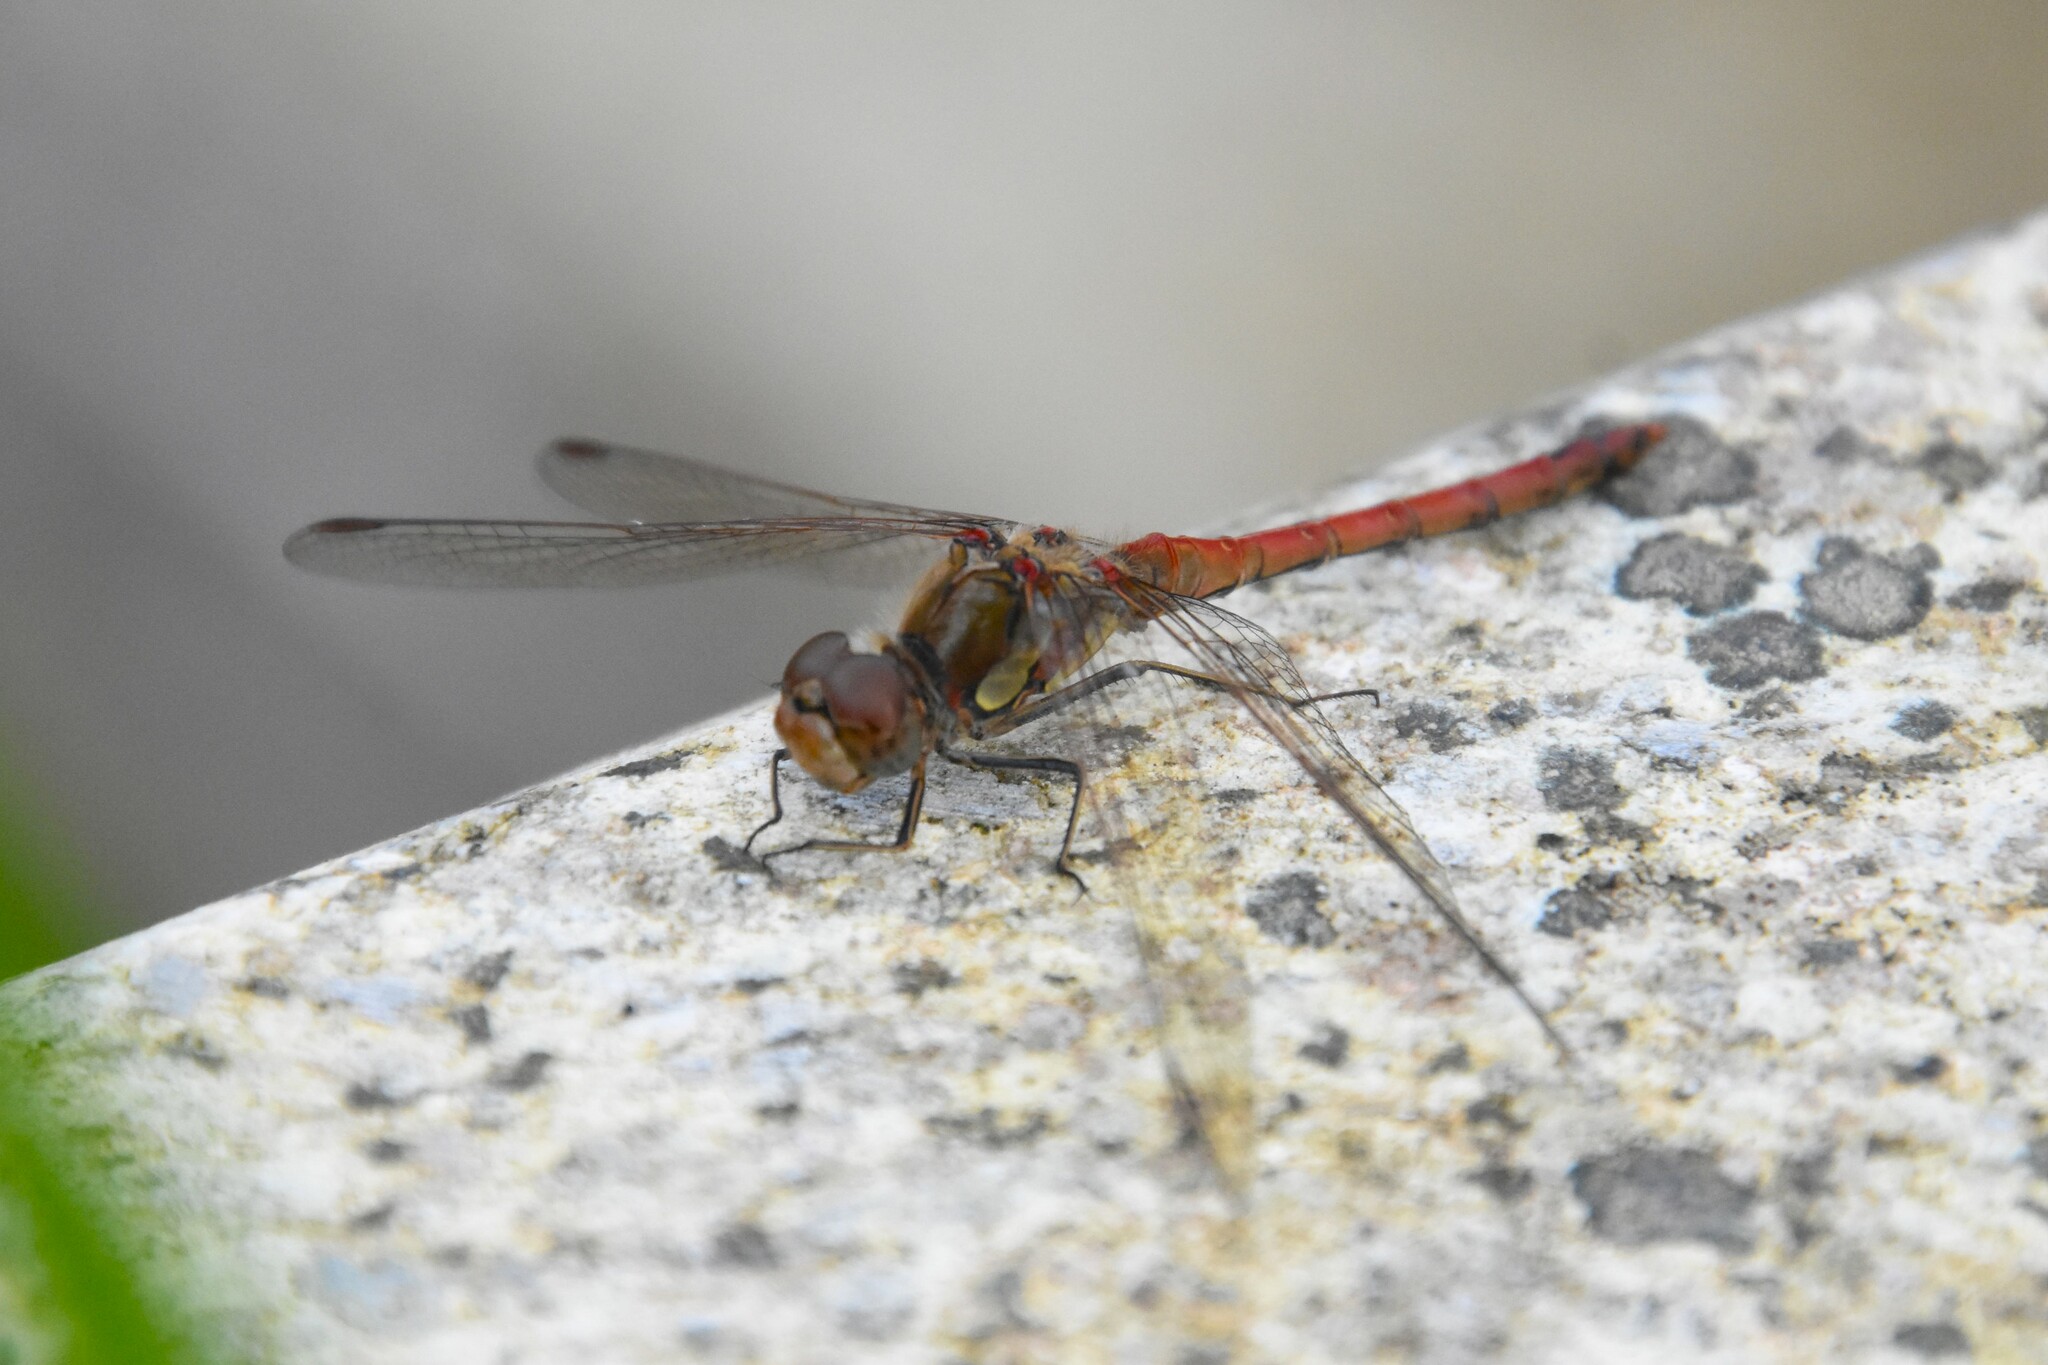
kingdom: Animalia
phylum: Arthropoda
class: Insecta
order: Odonata
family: Libellulidae
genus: Sympetrum
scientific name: Sympetrum striolatum
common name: Common darter
